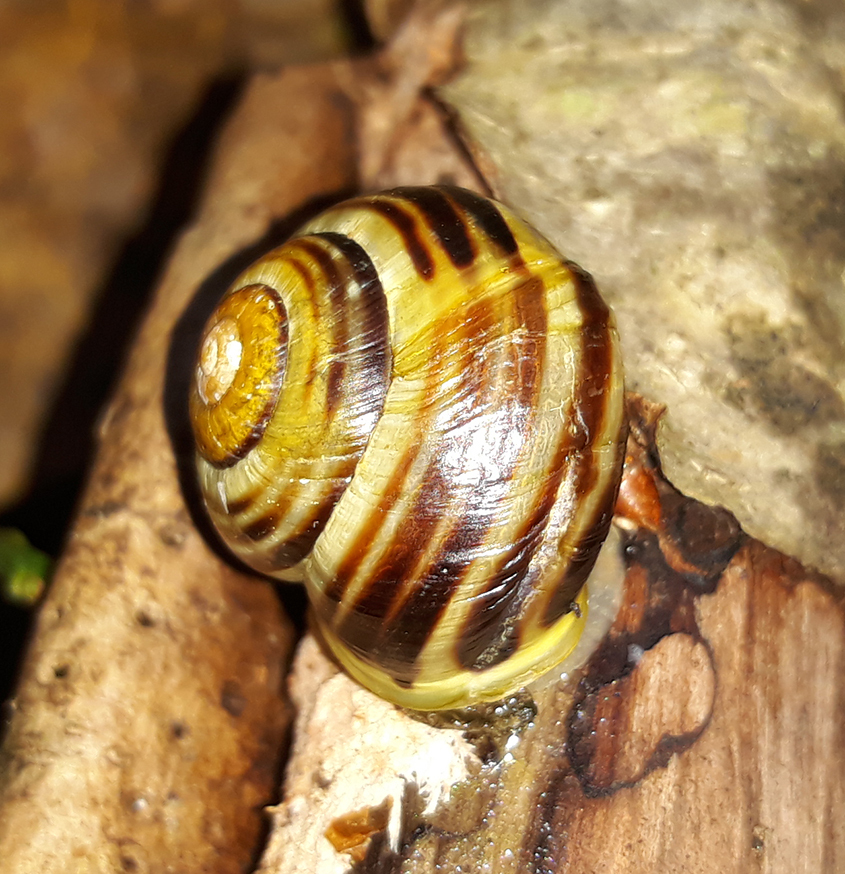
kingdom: Animalia
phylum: Mollusca
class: Gastropoda
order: Stylommatophora
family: Helicidae
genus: Cepaea
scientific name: Cepaea hortensis
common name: White-lip gardensnail
